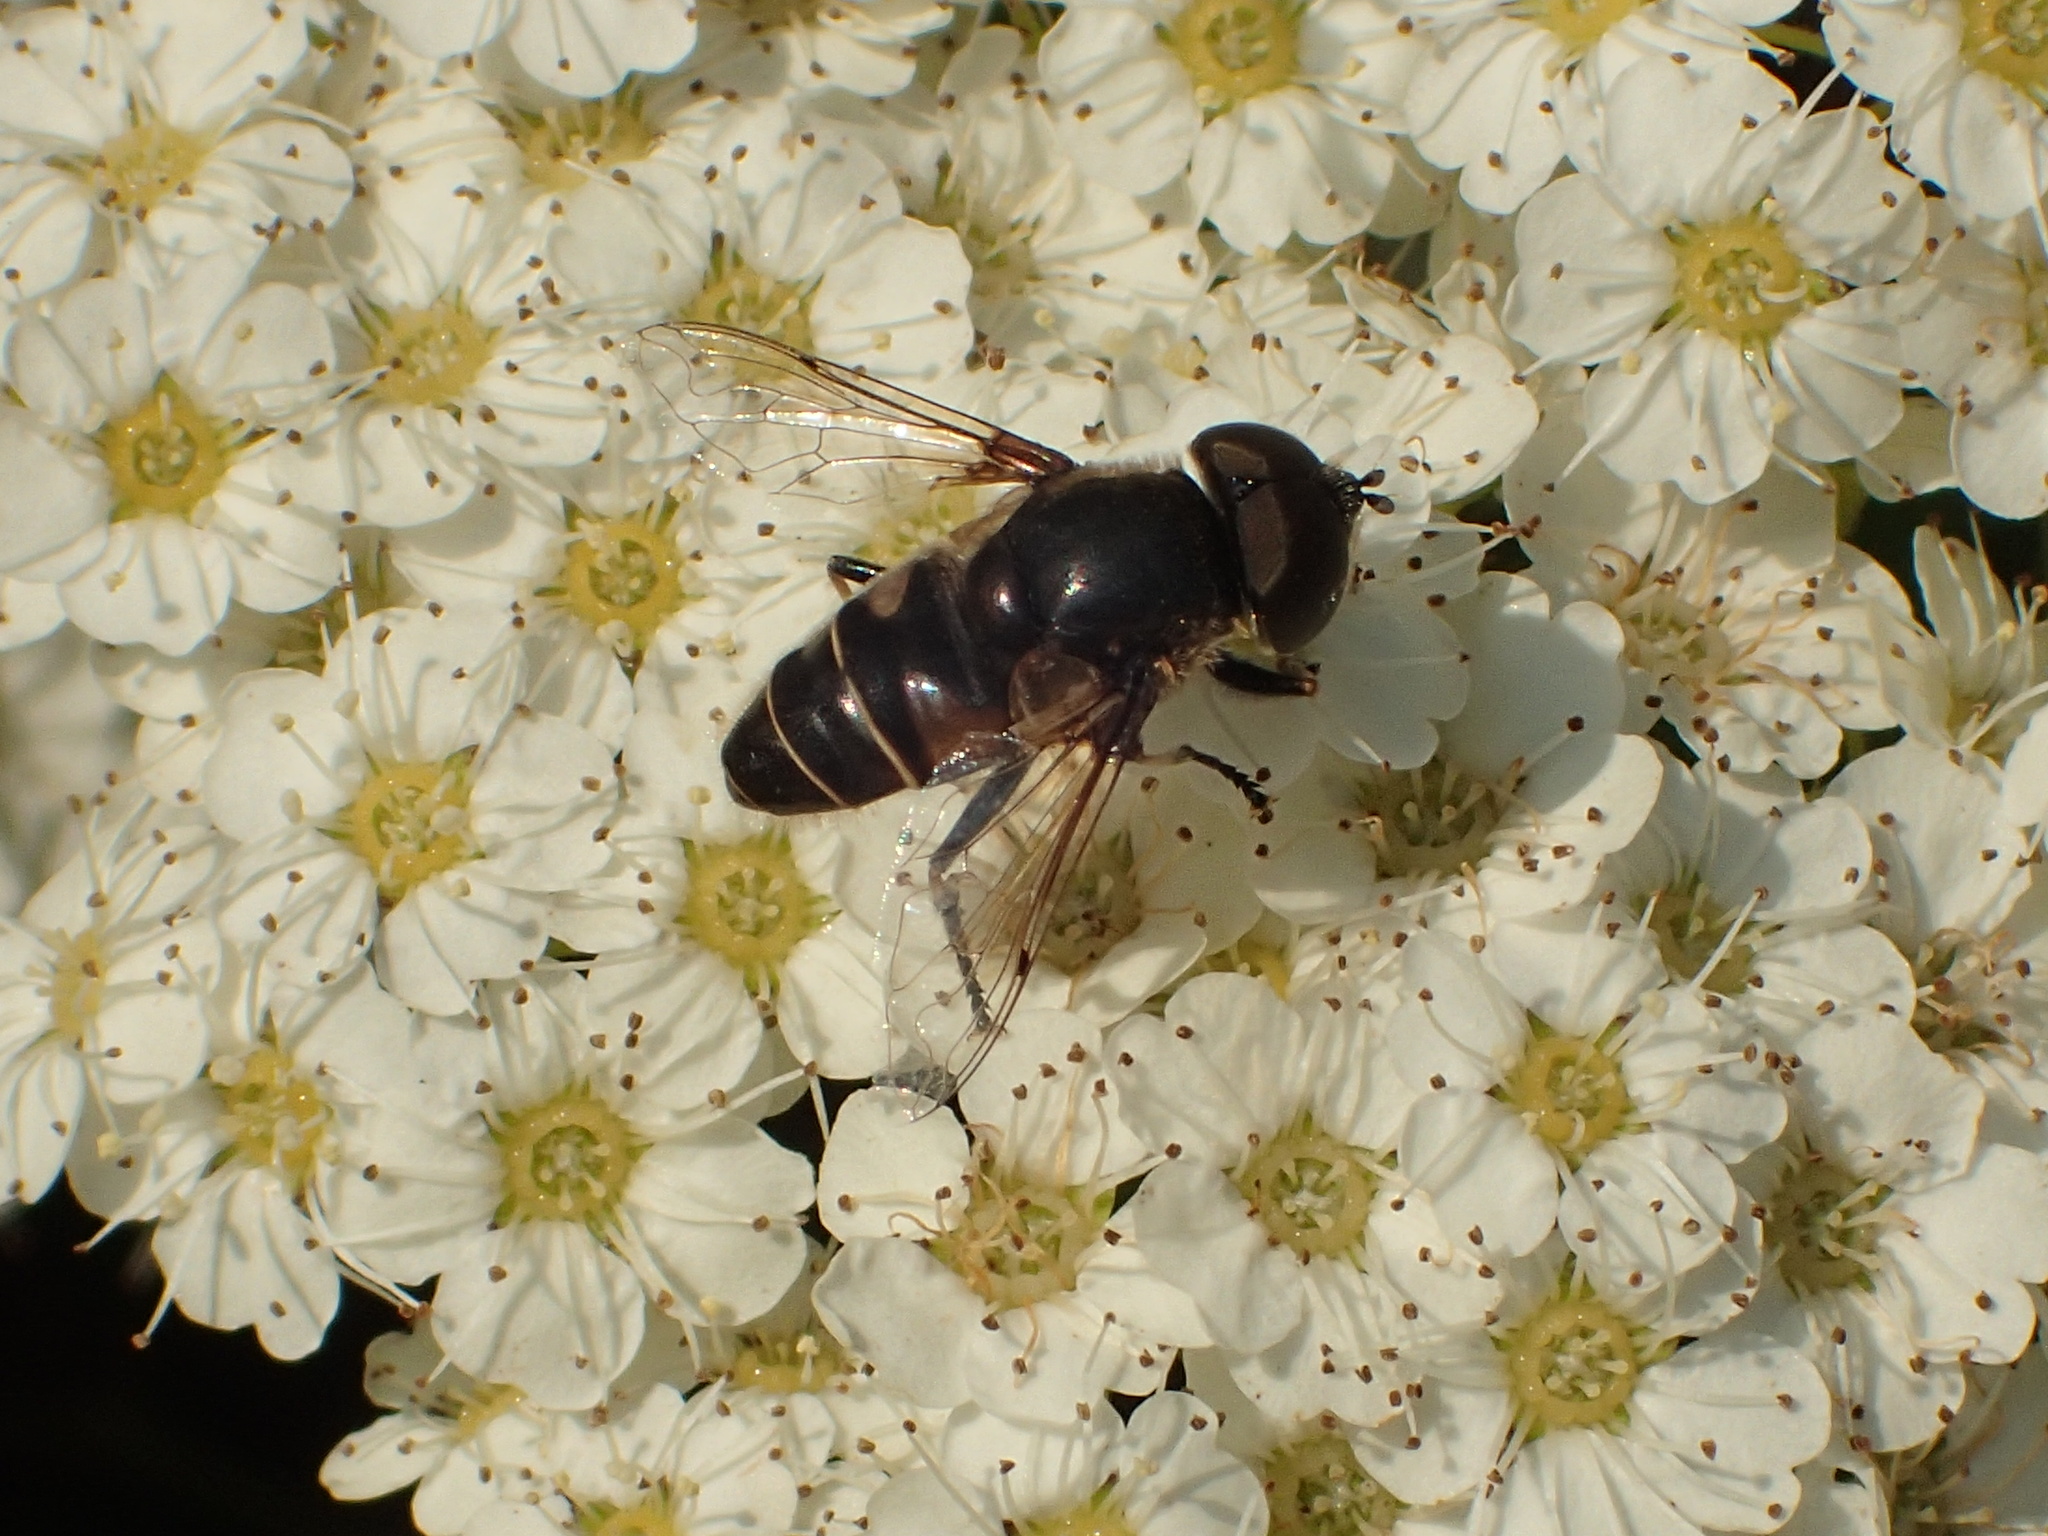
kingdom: Animalia
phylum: Arthropoda
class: Insecta
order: Diptera
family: Syrphidae
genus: Eristalis
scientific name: Eristalis dimidiata
